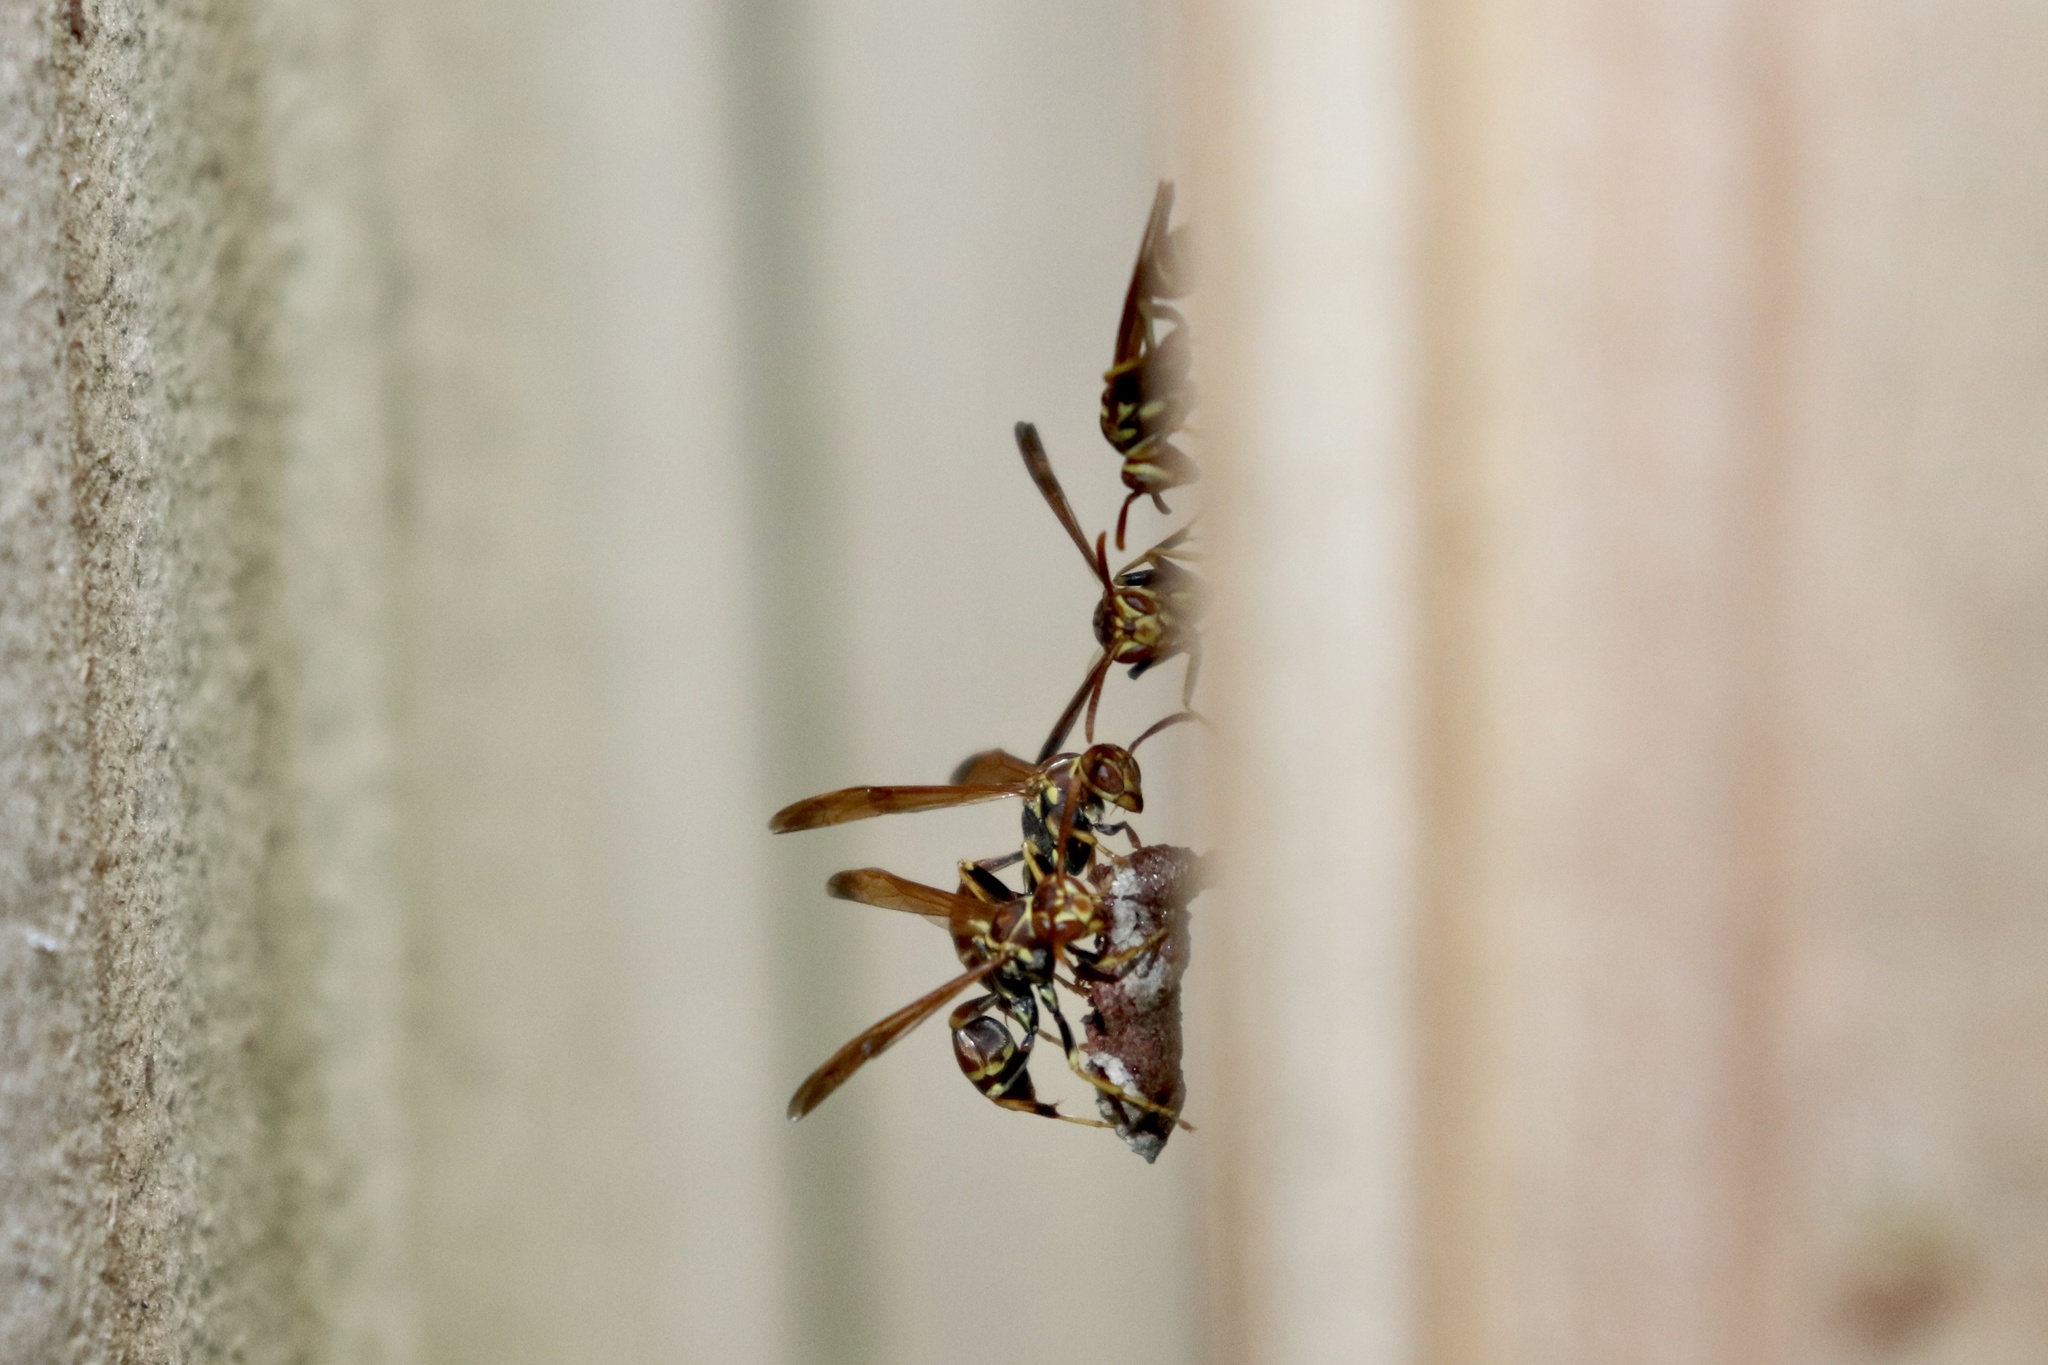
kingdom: Animalia
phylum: Arthropoda
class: Insecta
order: Hymenoptera
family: Vespidae
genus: Mischocyttarus
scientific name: Mischocyttarus mexicanus
